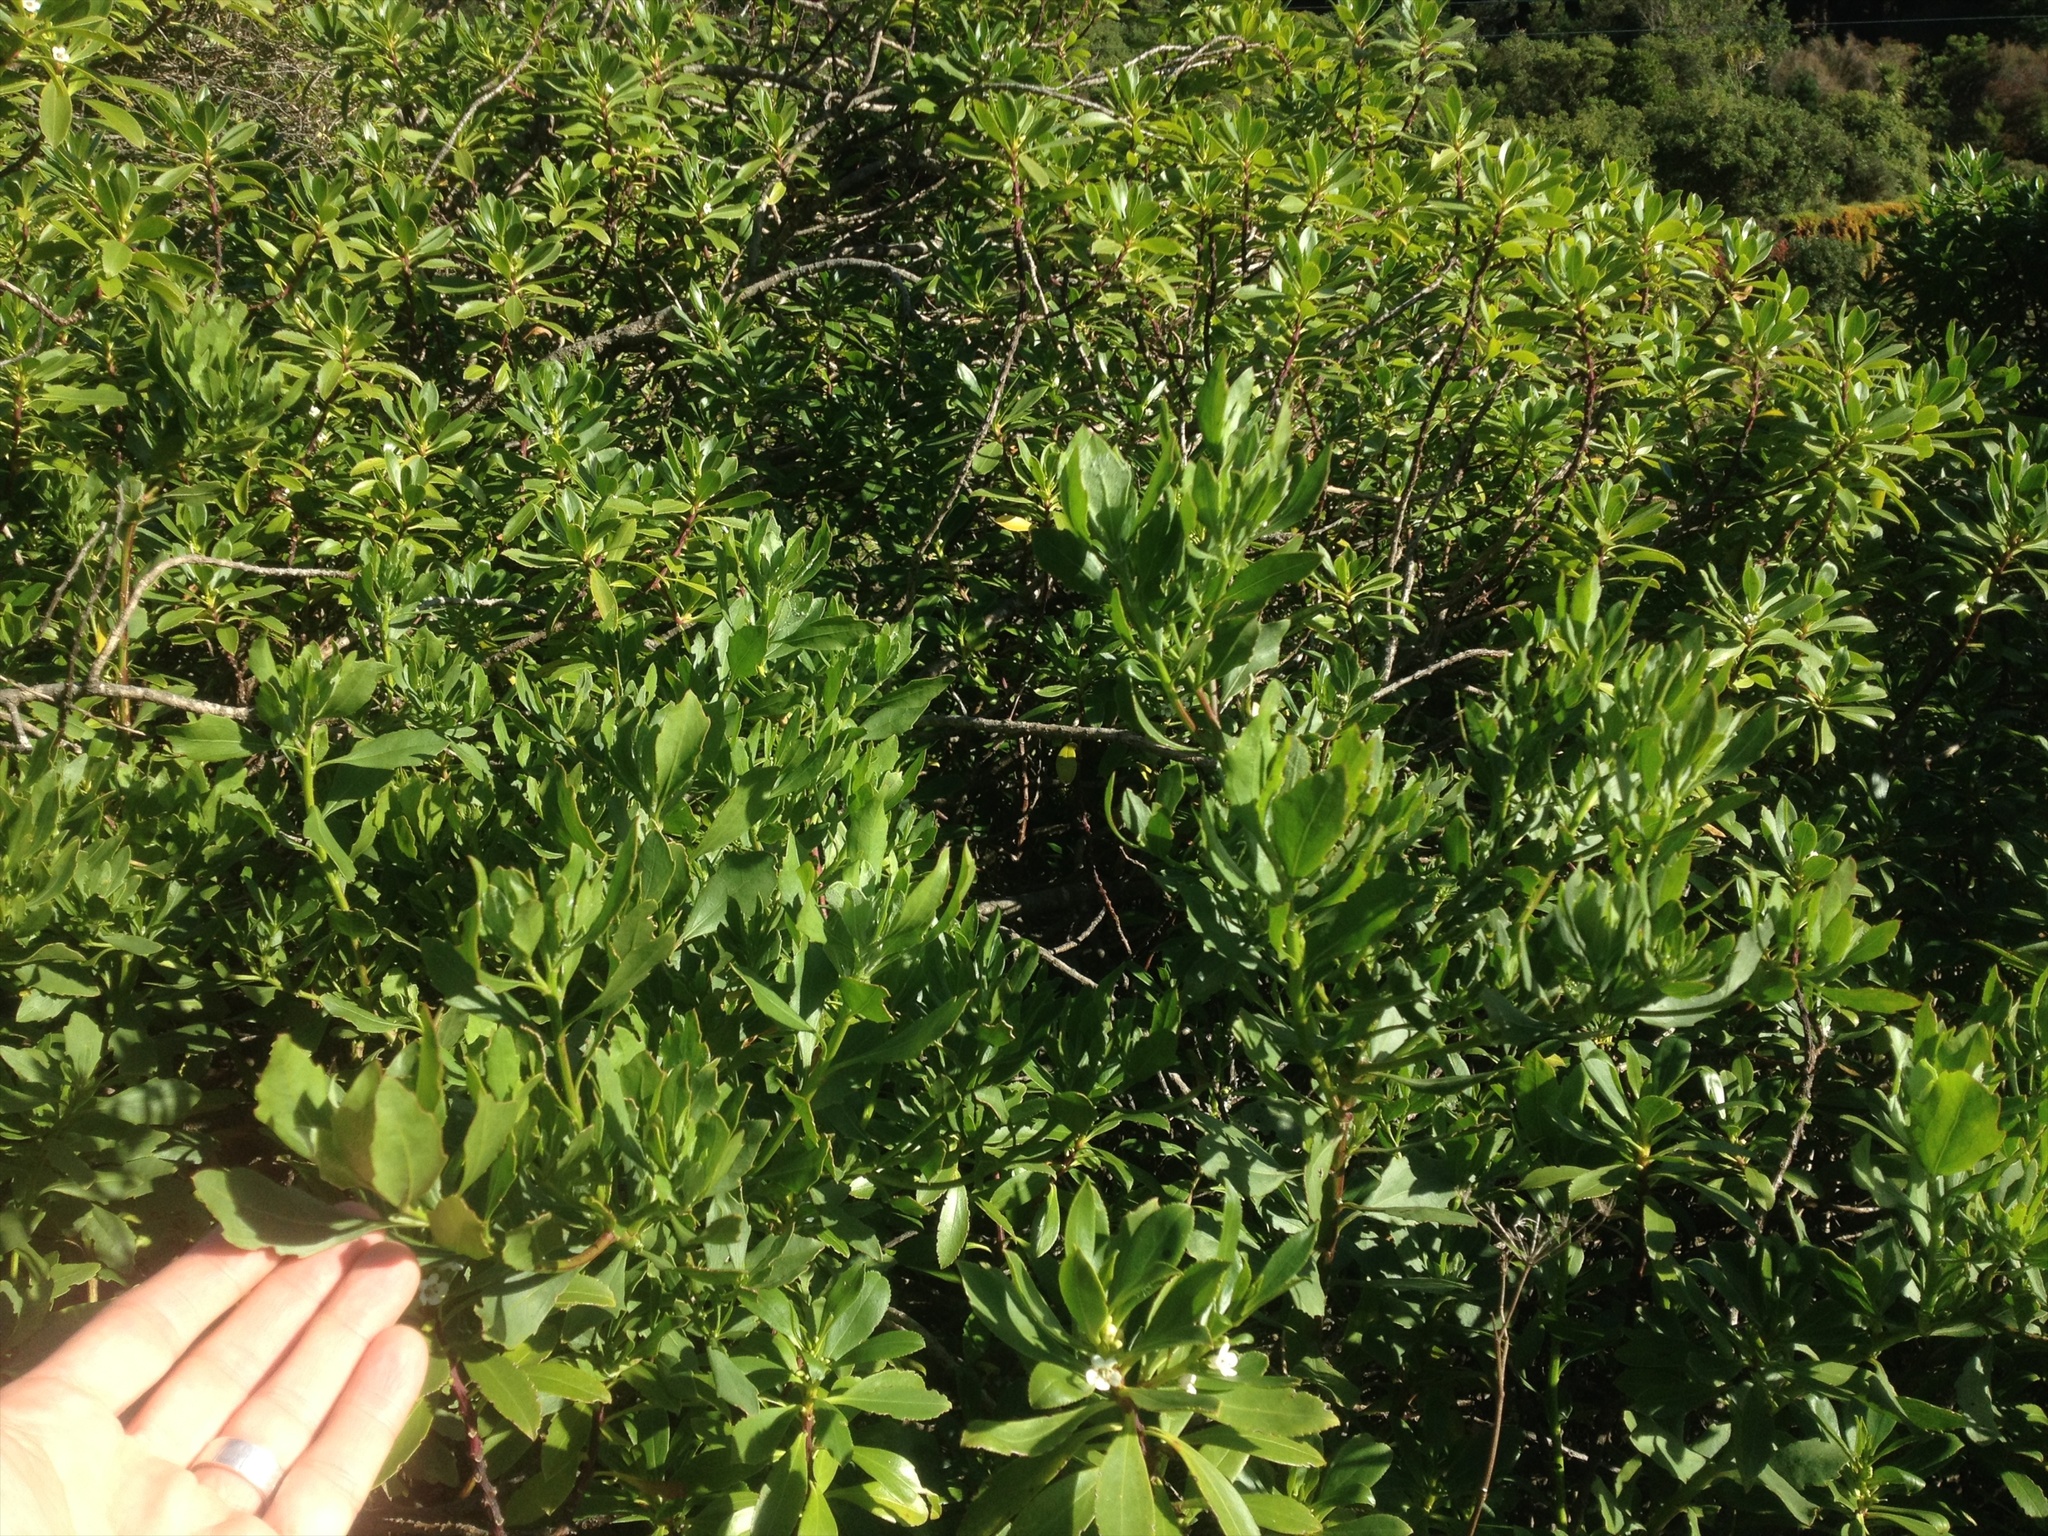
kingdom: Plantae
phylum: Tracheophyta
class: Magnoliopsida
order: Asterales
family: Asteraceae
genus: Osteospermum
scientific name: Osteospermum moniliferum
